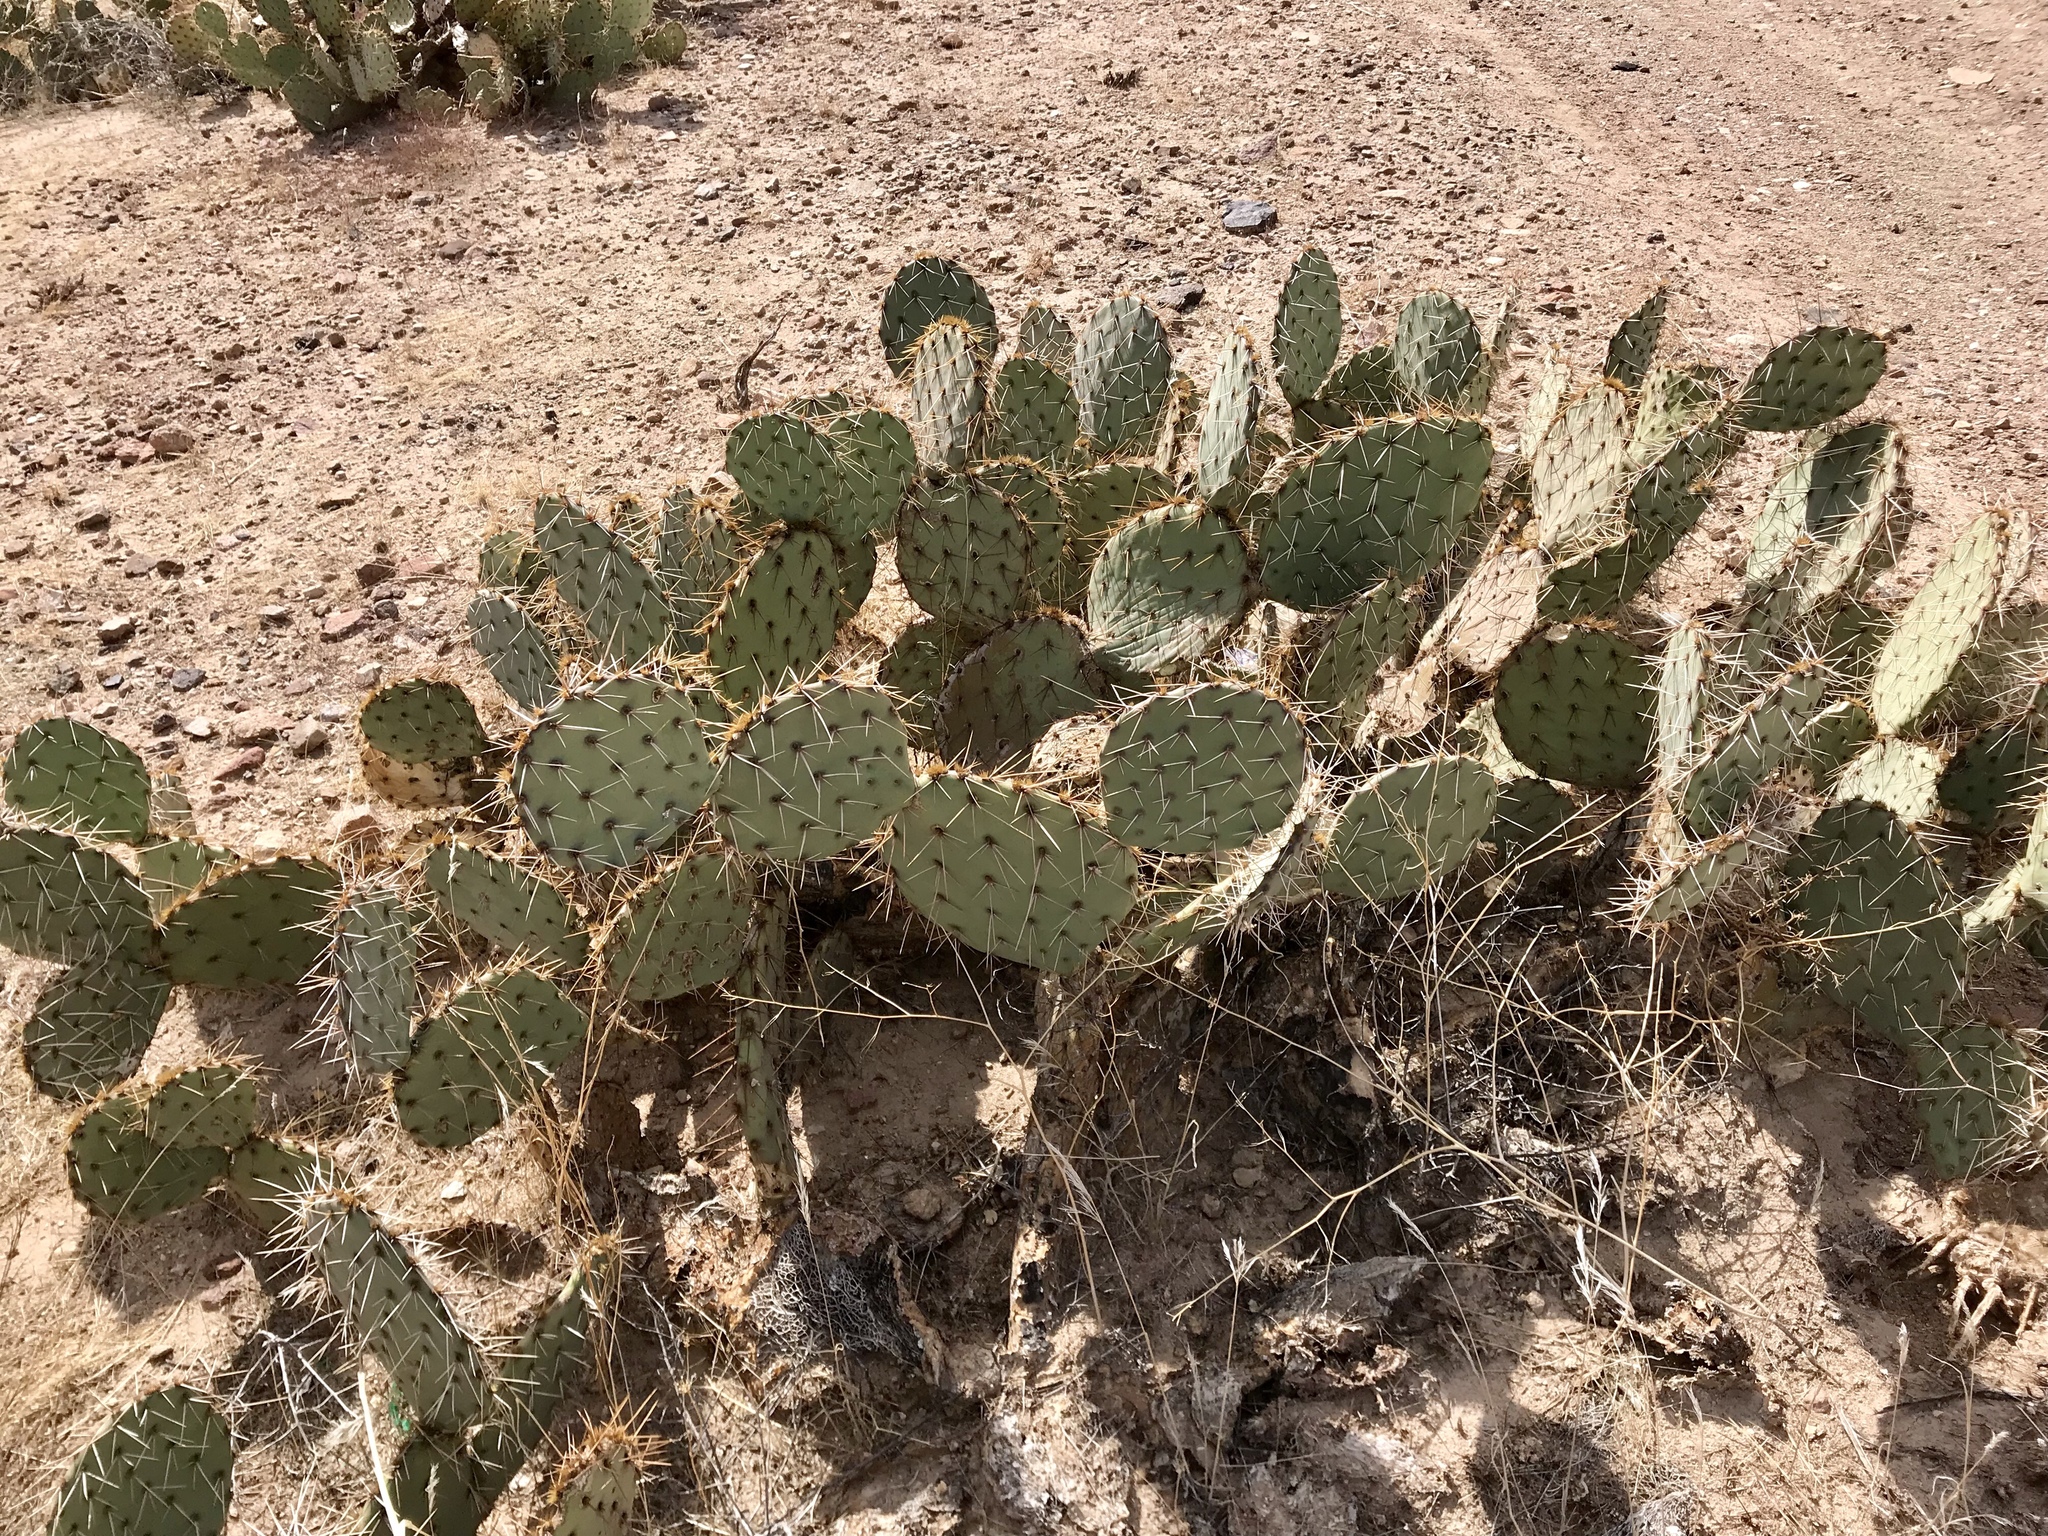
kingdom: Plantae
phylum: Tracheophyta
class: Magnoliopsida
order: Caryophyllales
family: Cactaceae
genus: Opuntia
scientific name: Opuntia engelmannii
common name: Cactus-apple
